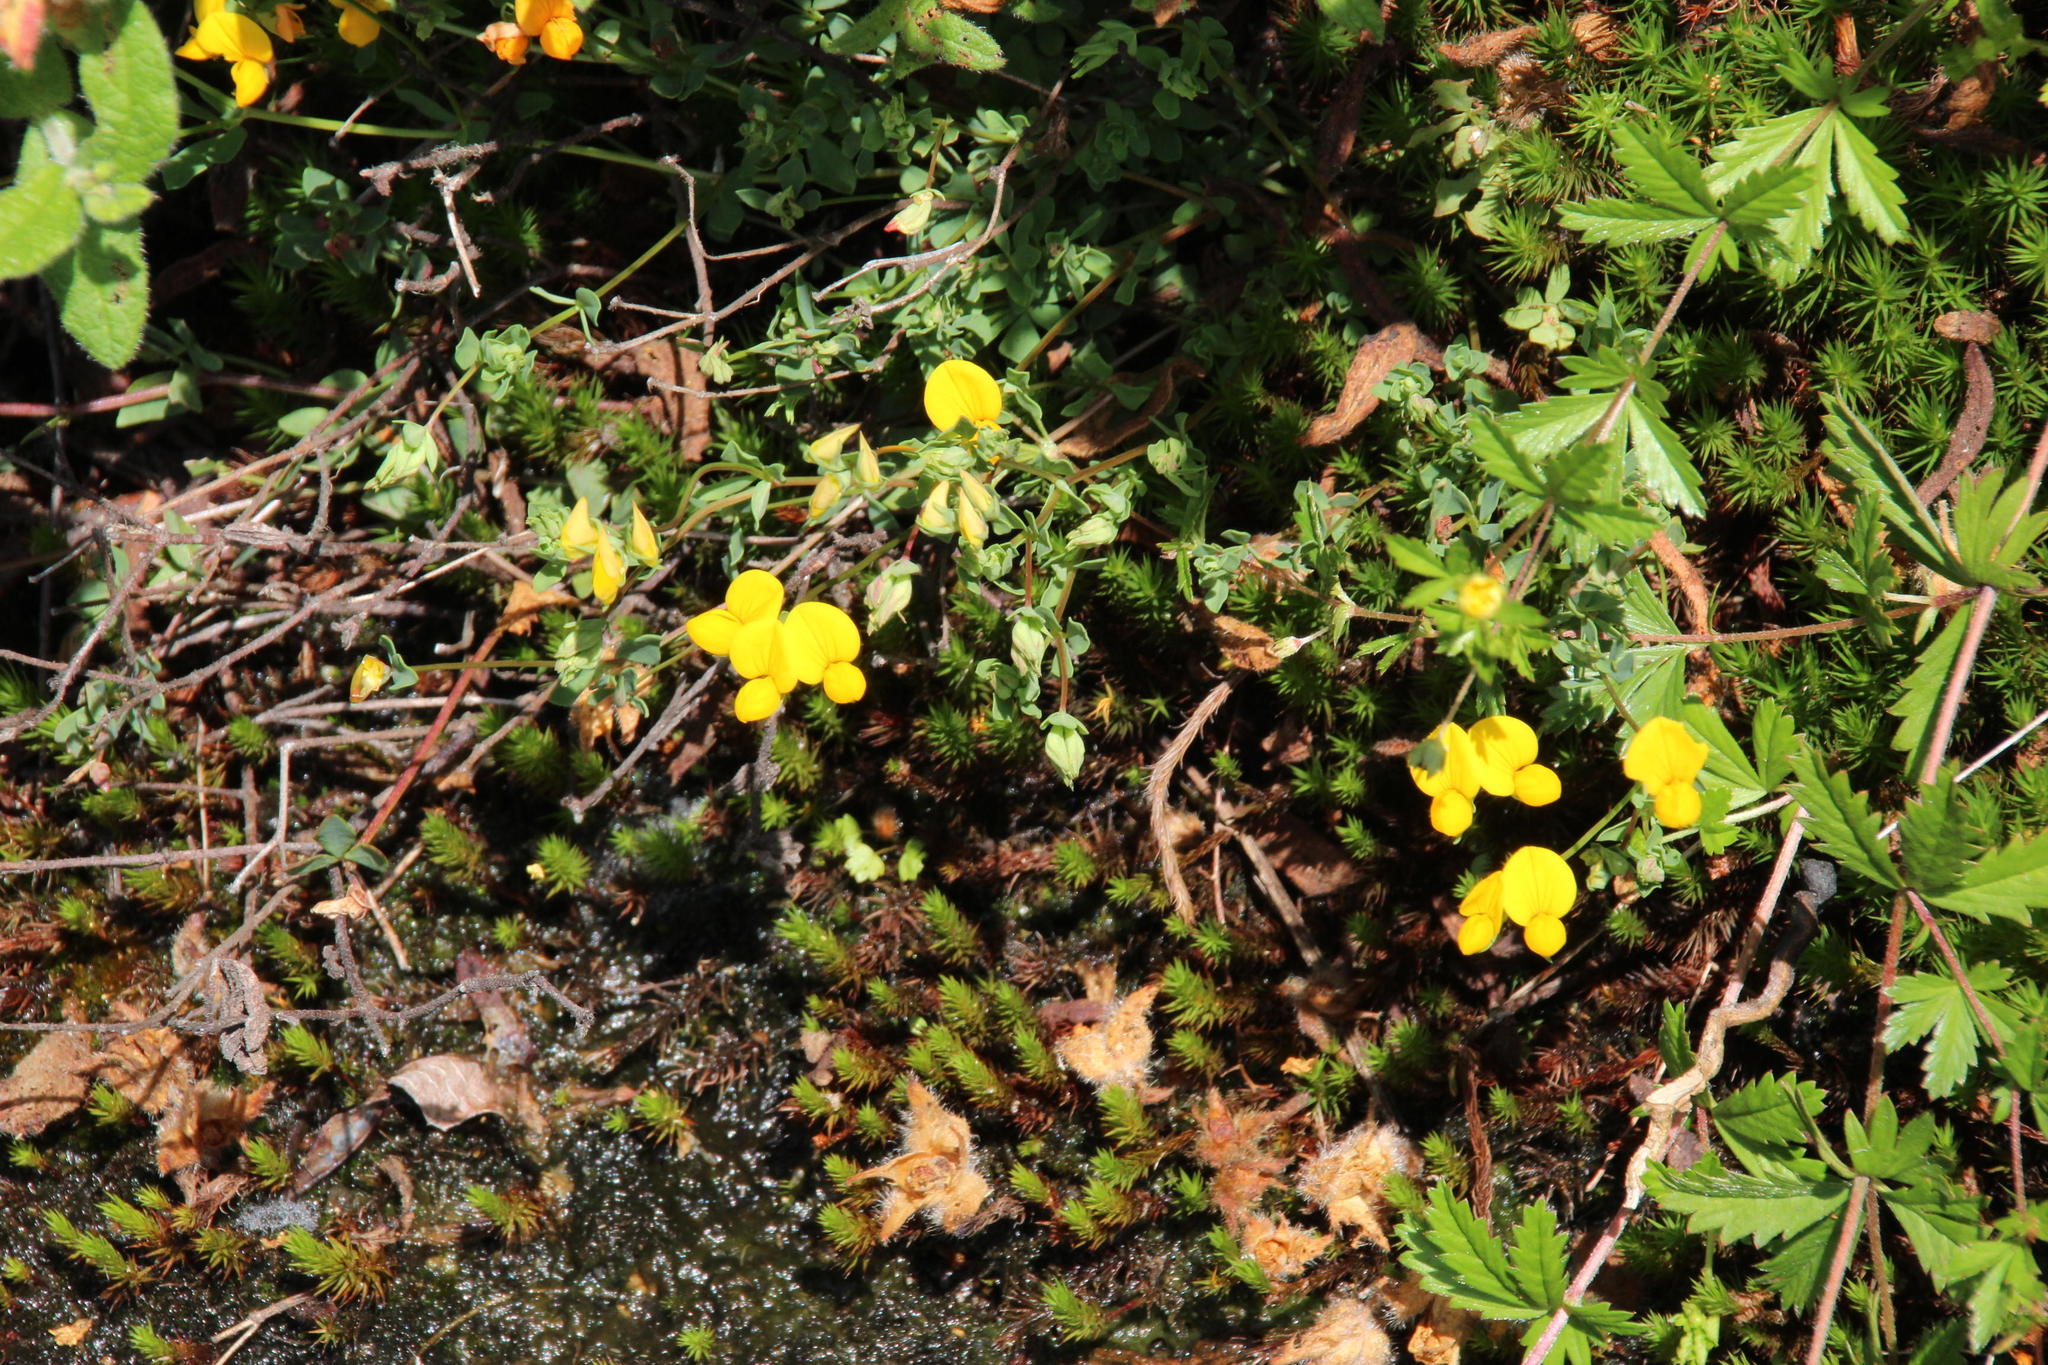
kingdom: Plantae
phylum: Tracheophyta
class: Magnoliopsida
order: Fabales
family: Fabaceae
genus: Lotus
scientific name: Lotus corniculatus
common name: Common bird's-foot-trefoil
